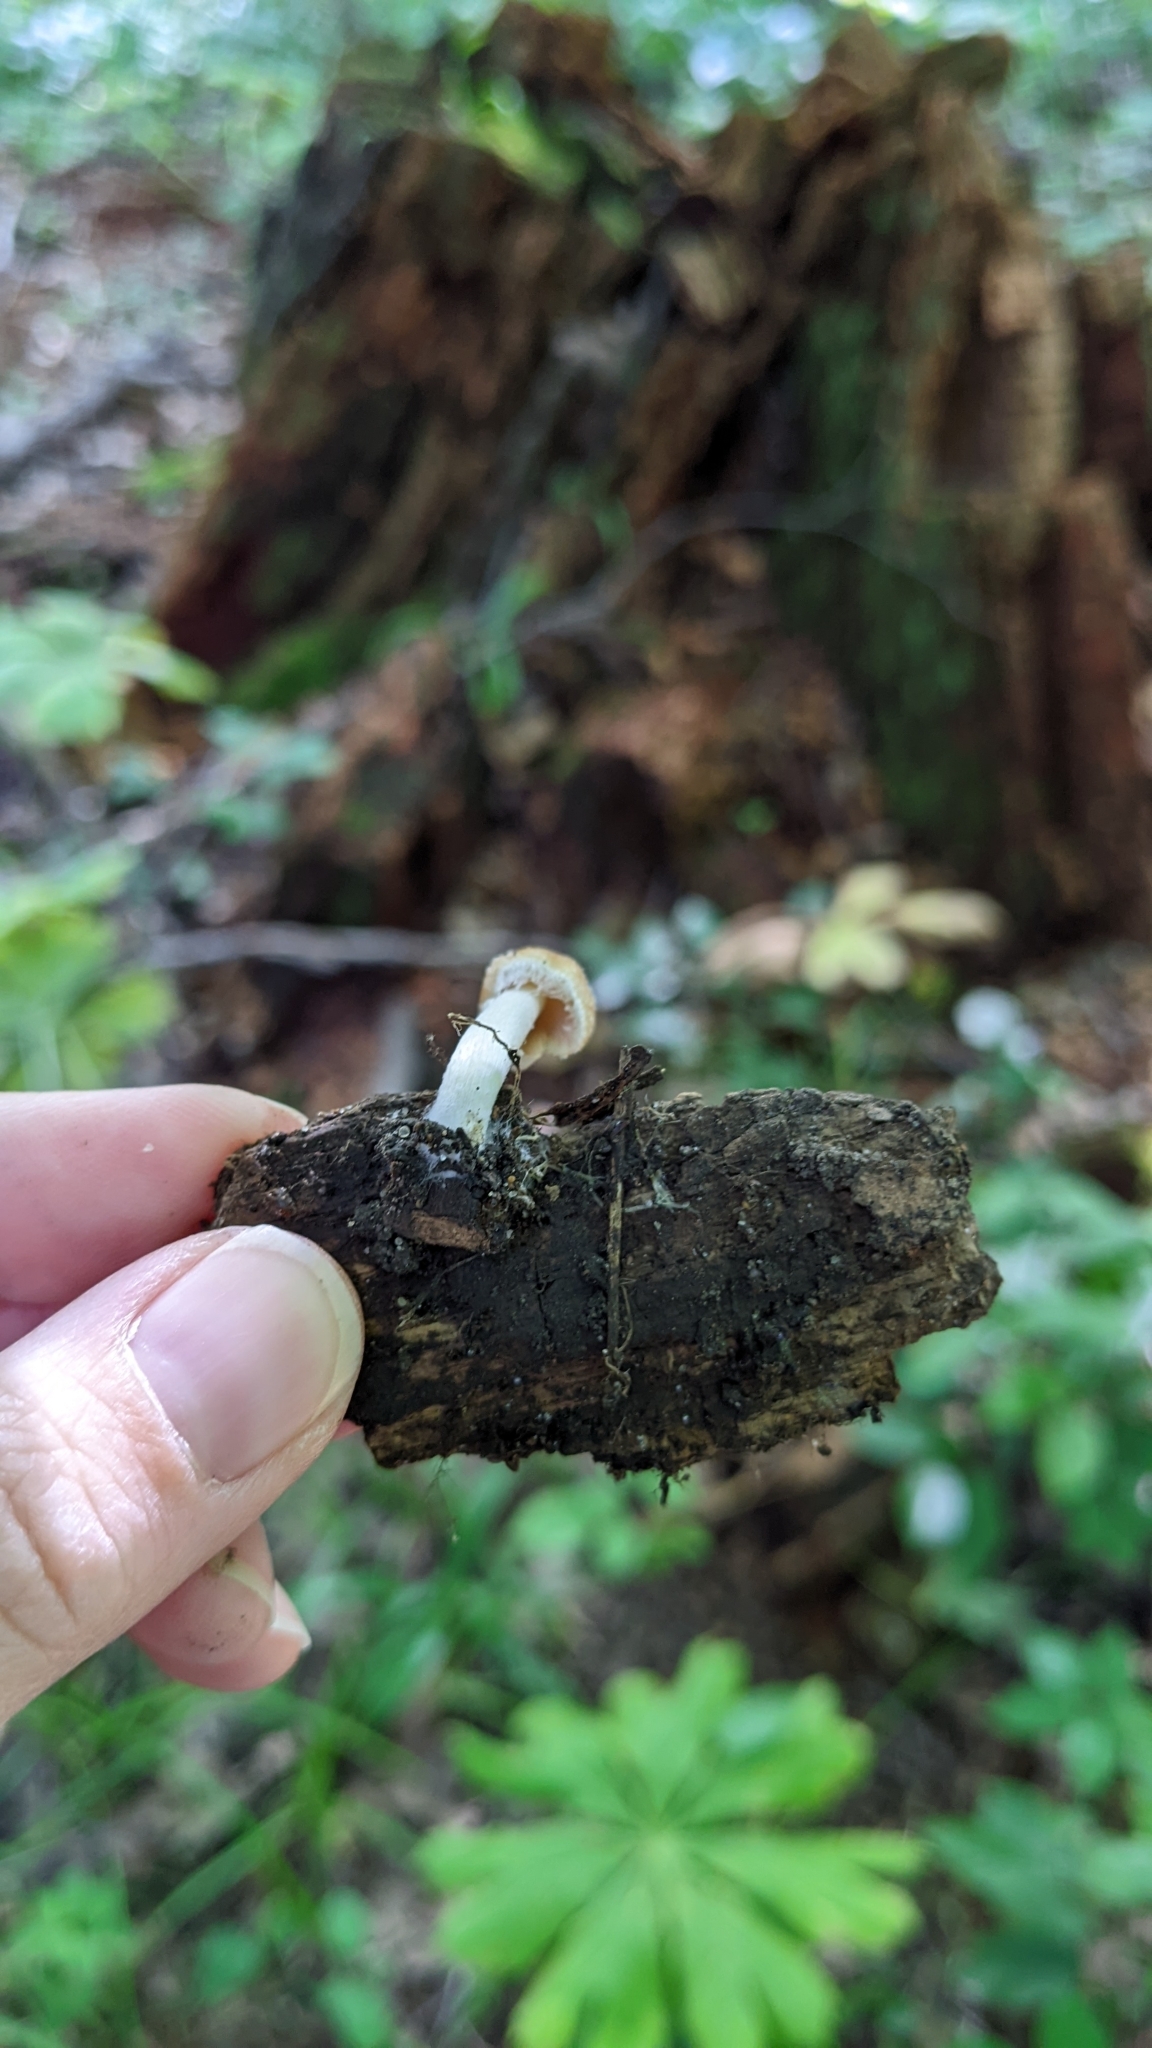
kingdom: Fungi
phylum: Basidiomycota
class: Agaricomycetes
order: Agaricales
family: Psathyrellaceae
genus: Candolleomyces
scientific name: Candolleomyces candolleanus
